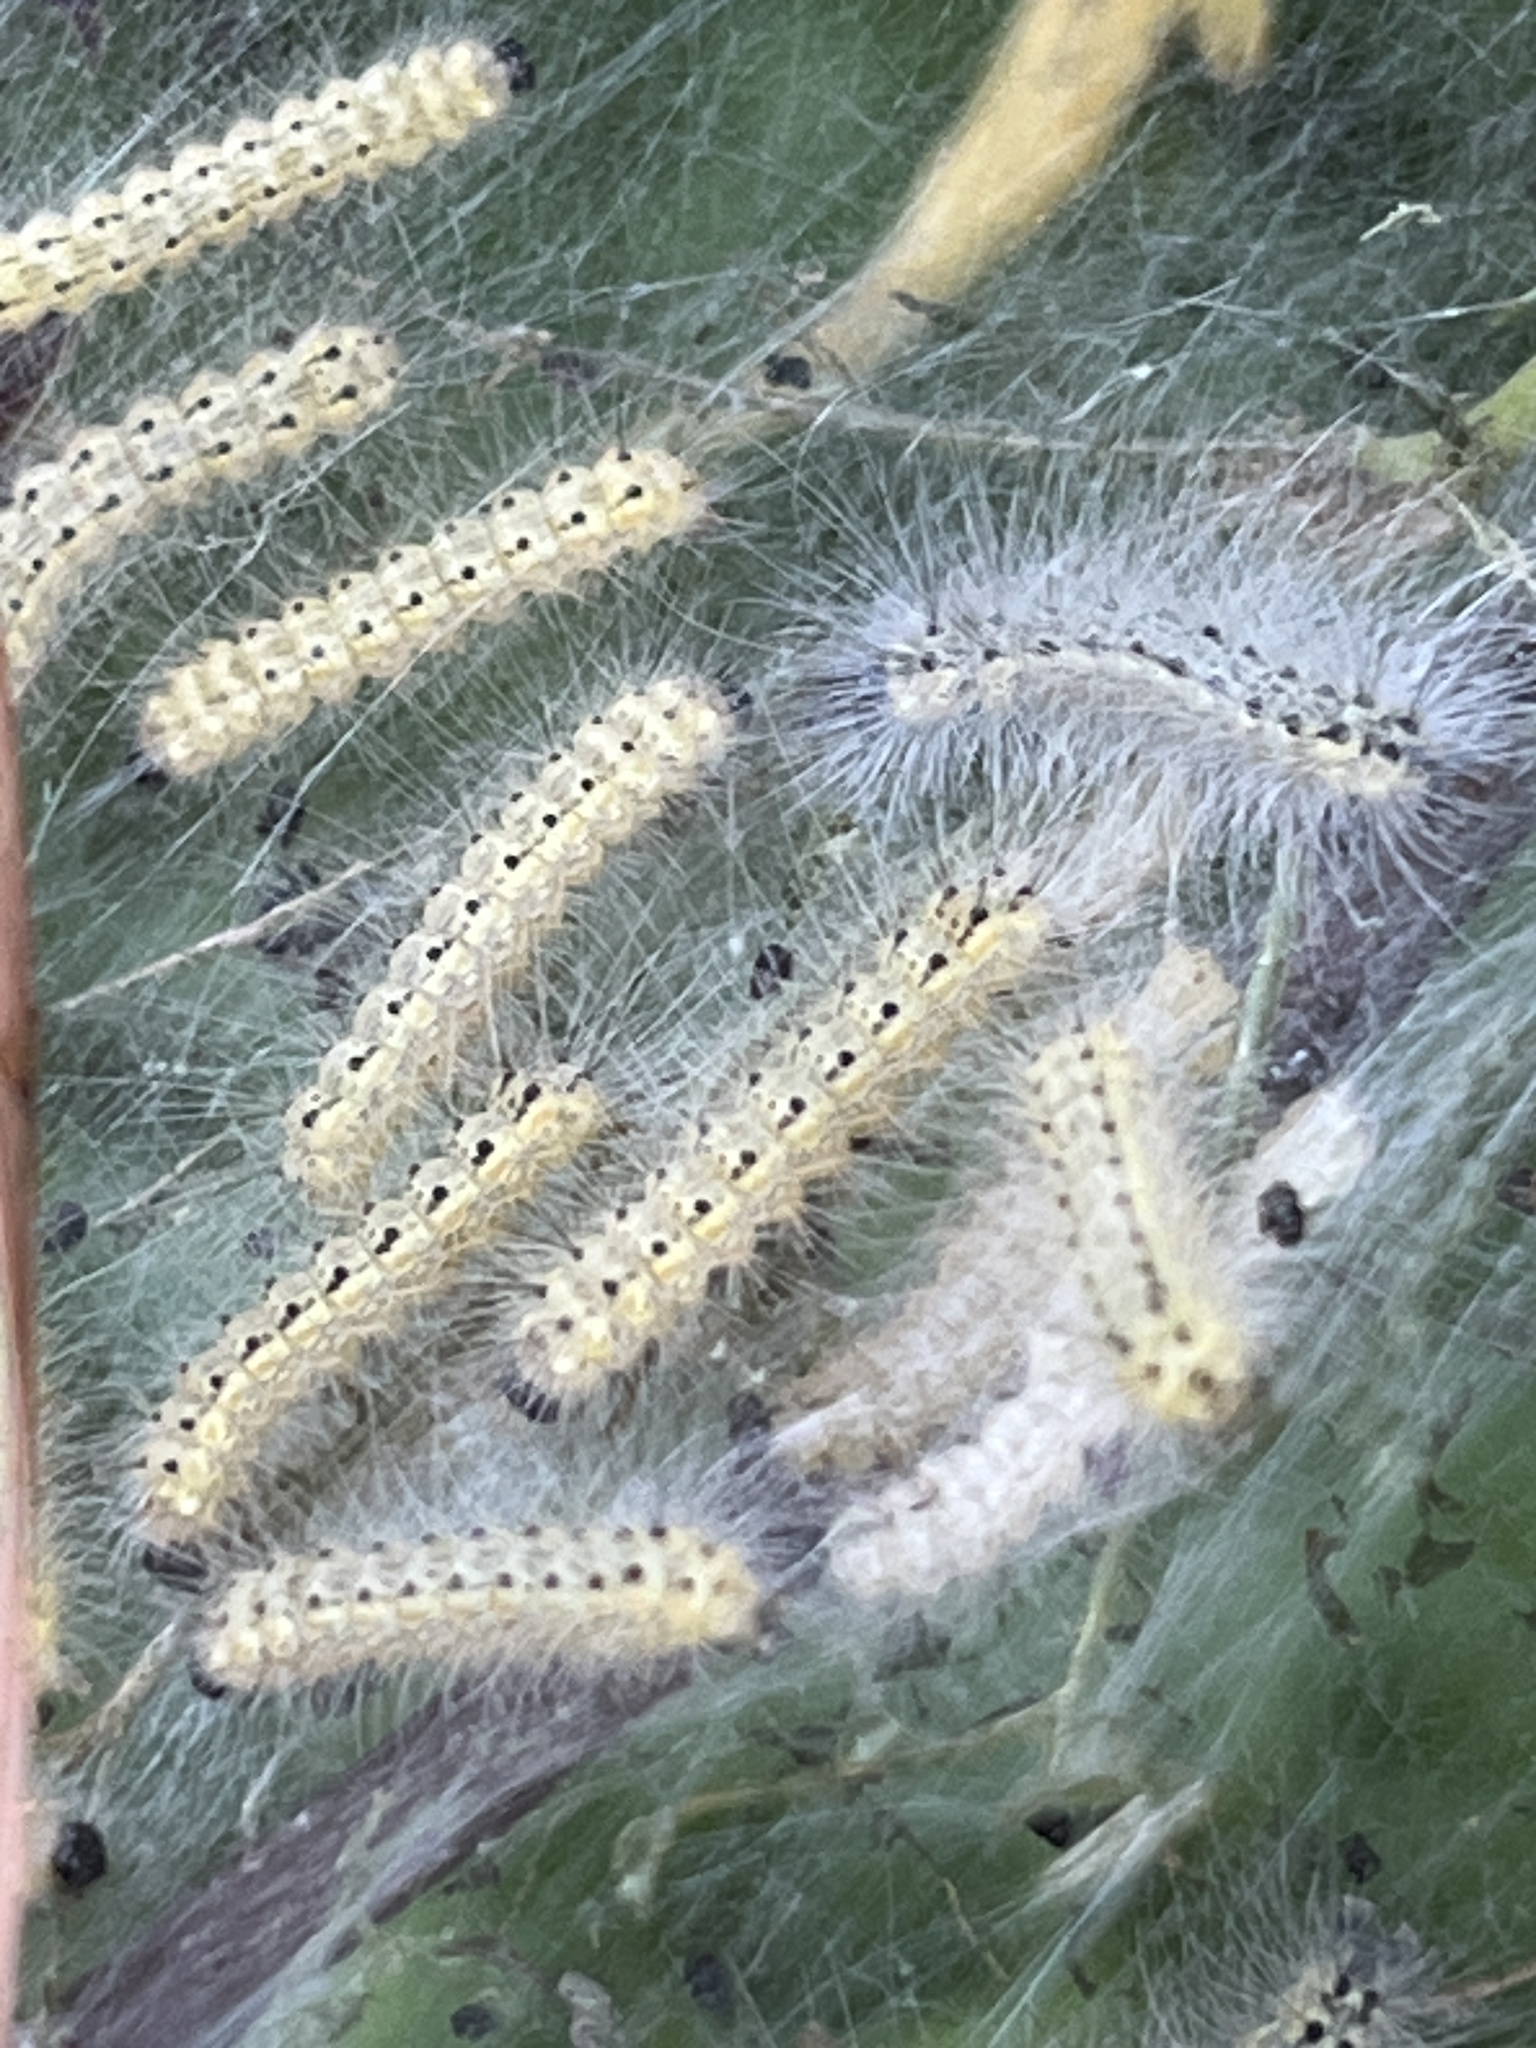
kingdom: Animalia
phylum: Arthropoda
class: Insecta
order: Lepidoptera
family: Erebidae
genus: Hyphantria
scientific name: Hyphantria cunea
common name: American white moth
